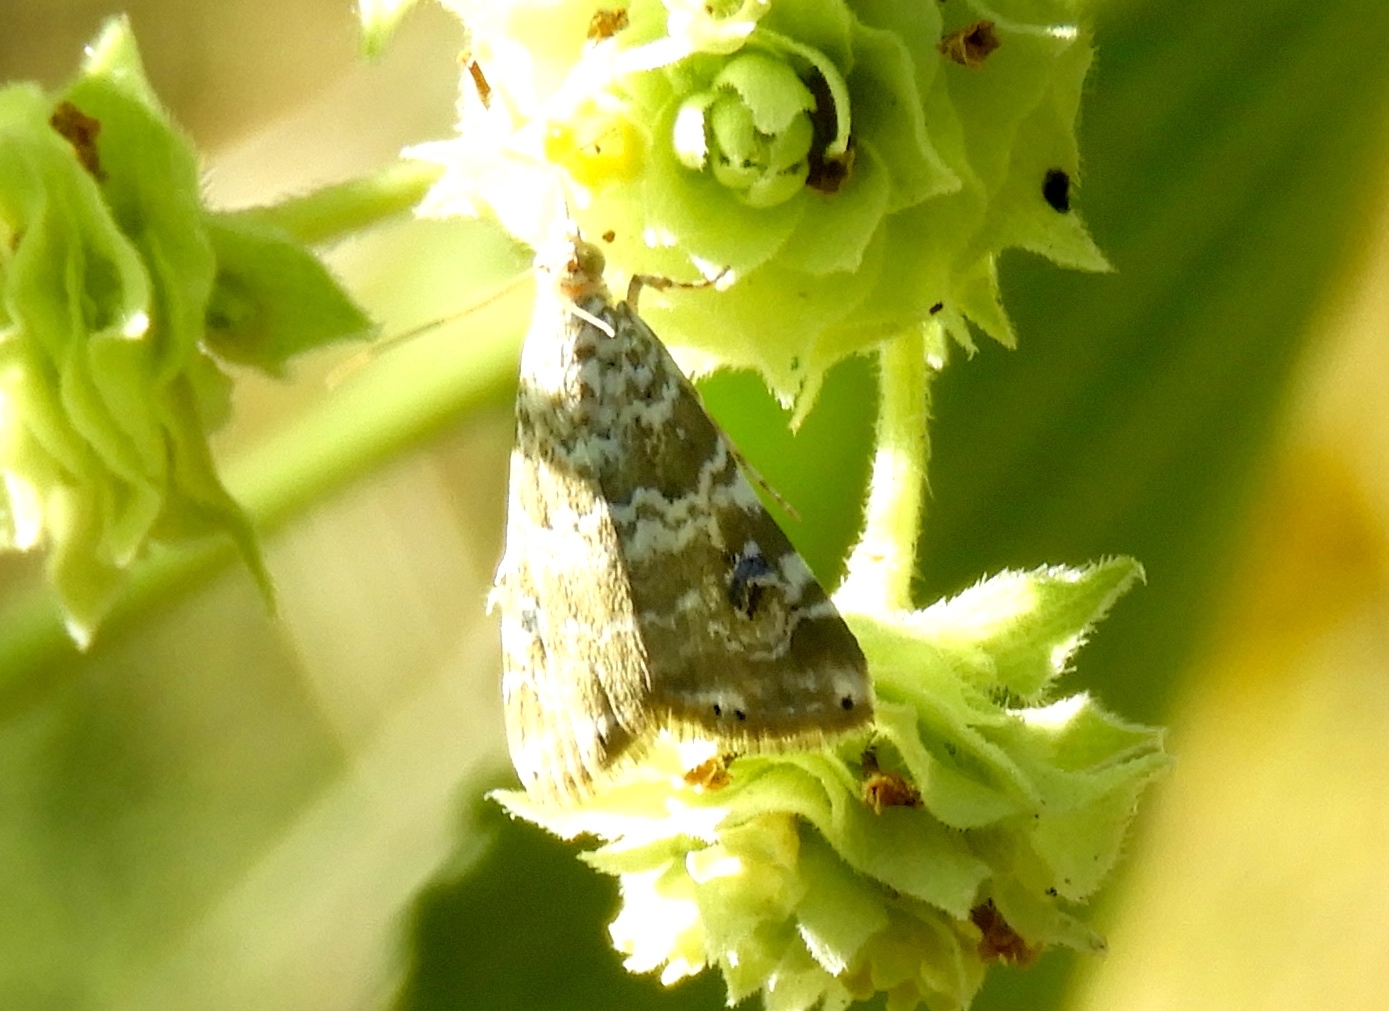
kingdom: Animalia
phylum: Arthropoda
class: Insecta
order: Lepidoptera
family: Crambidae
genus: Hellula
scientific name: Hellula rogatalis
